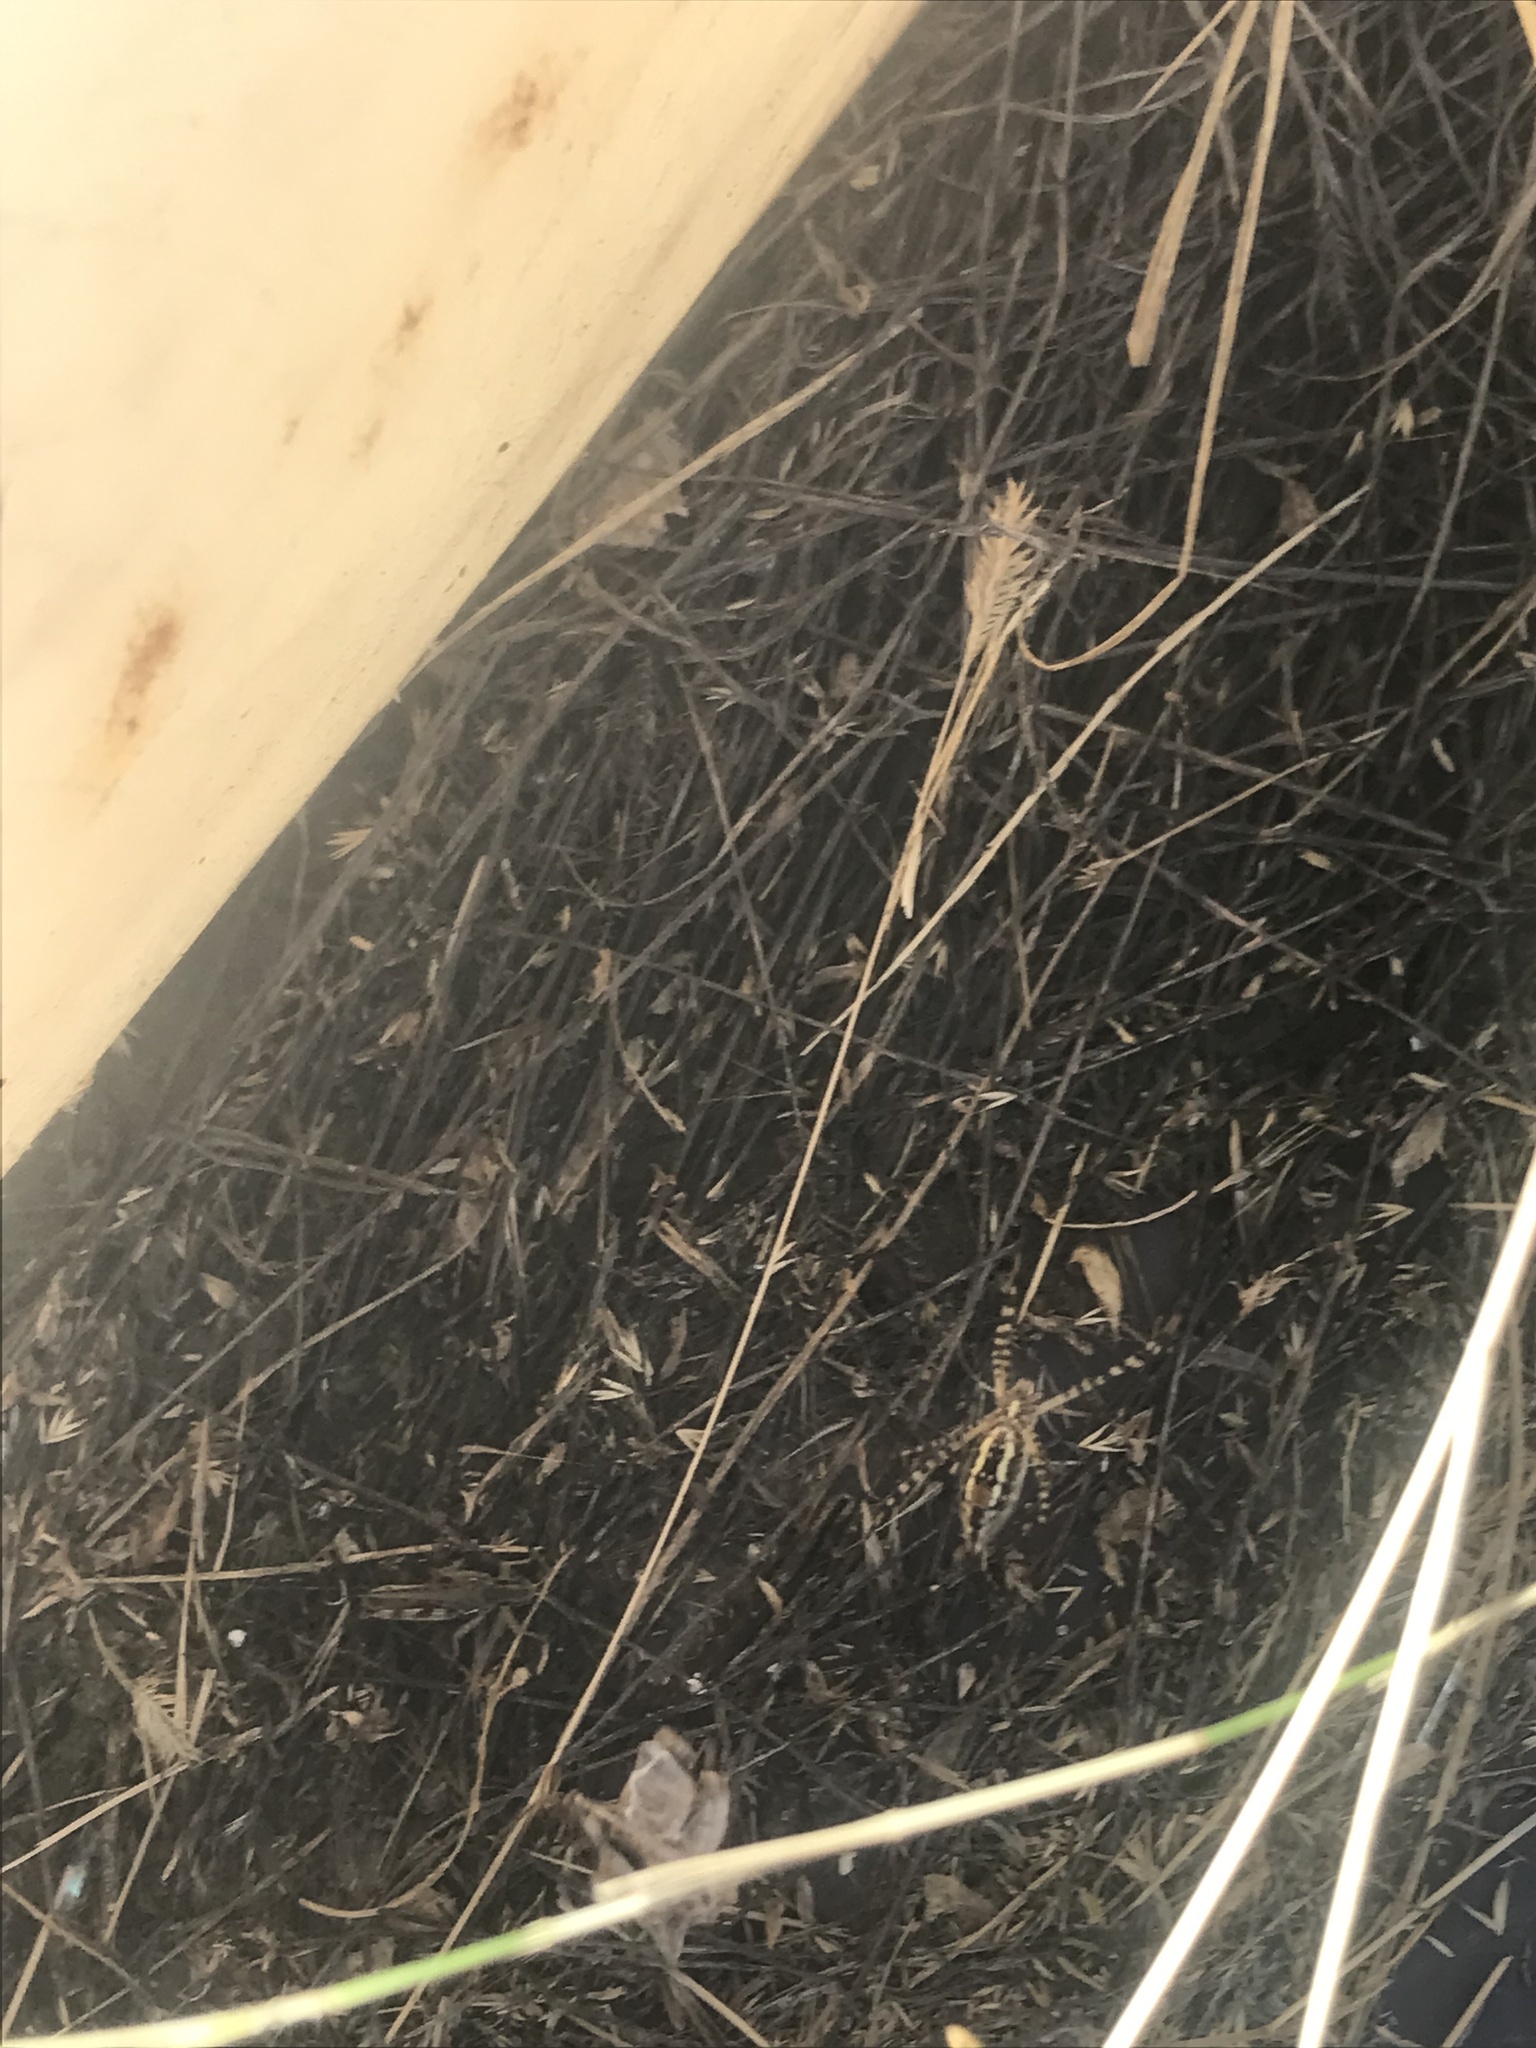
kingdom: Animalia
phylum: Arthropoda
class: Arachnida
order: Araneae
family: Araneidae
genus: Argiope
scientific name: Argiope trifasciata
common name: Banded garden spider
